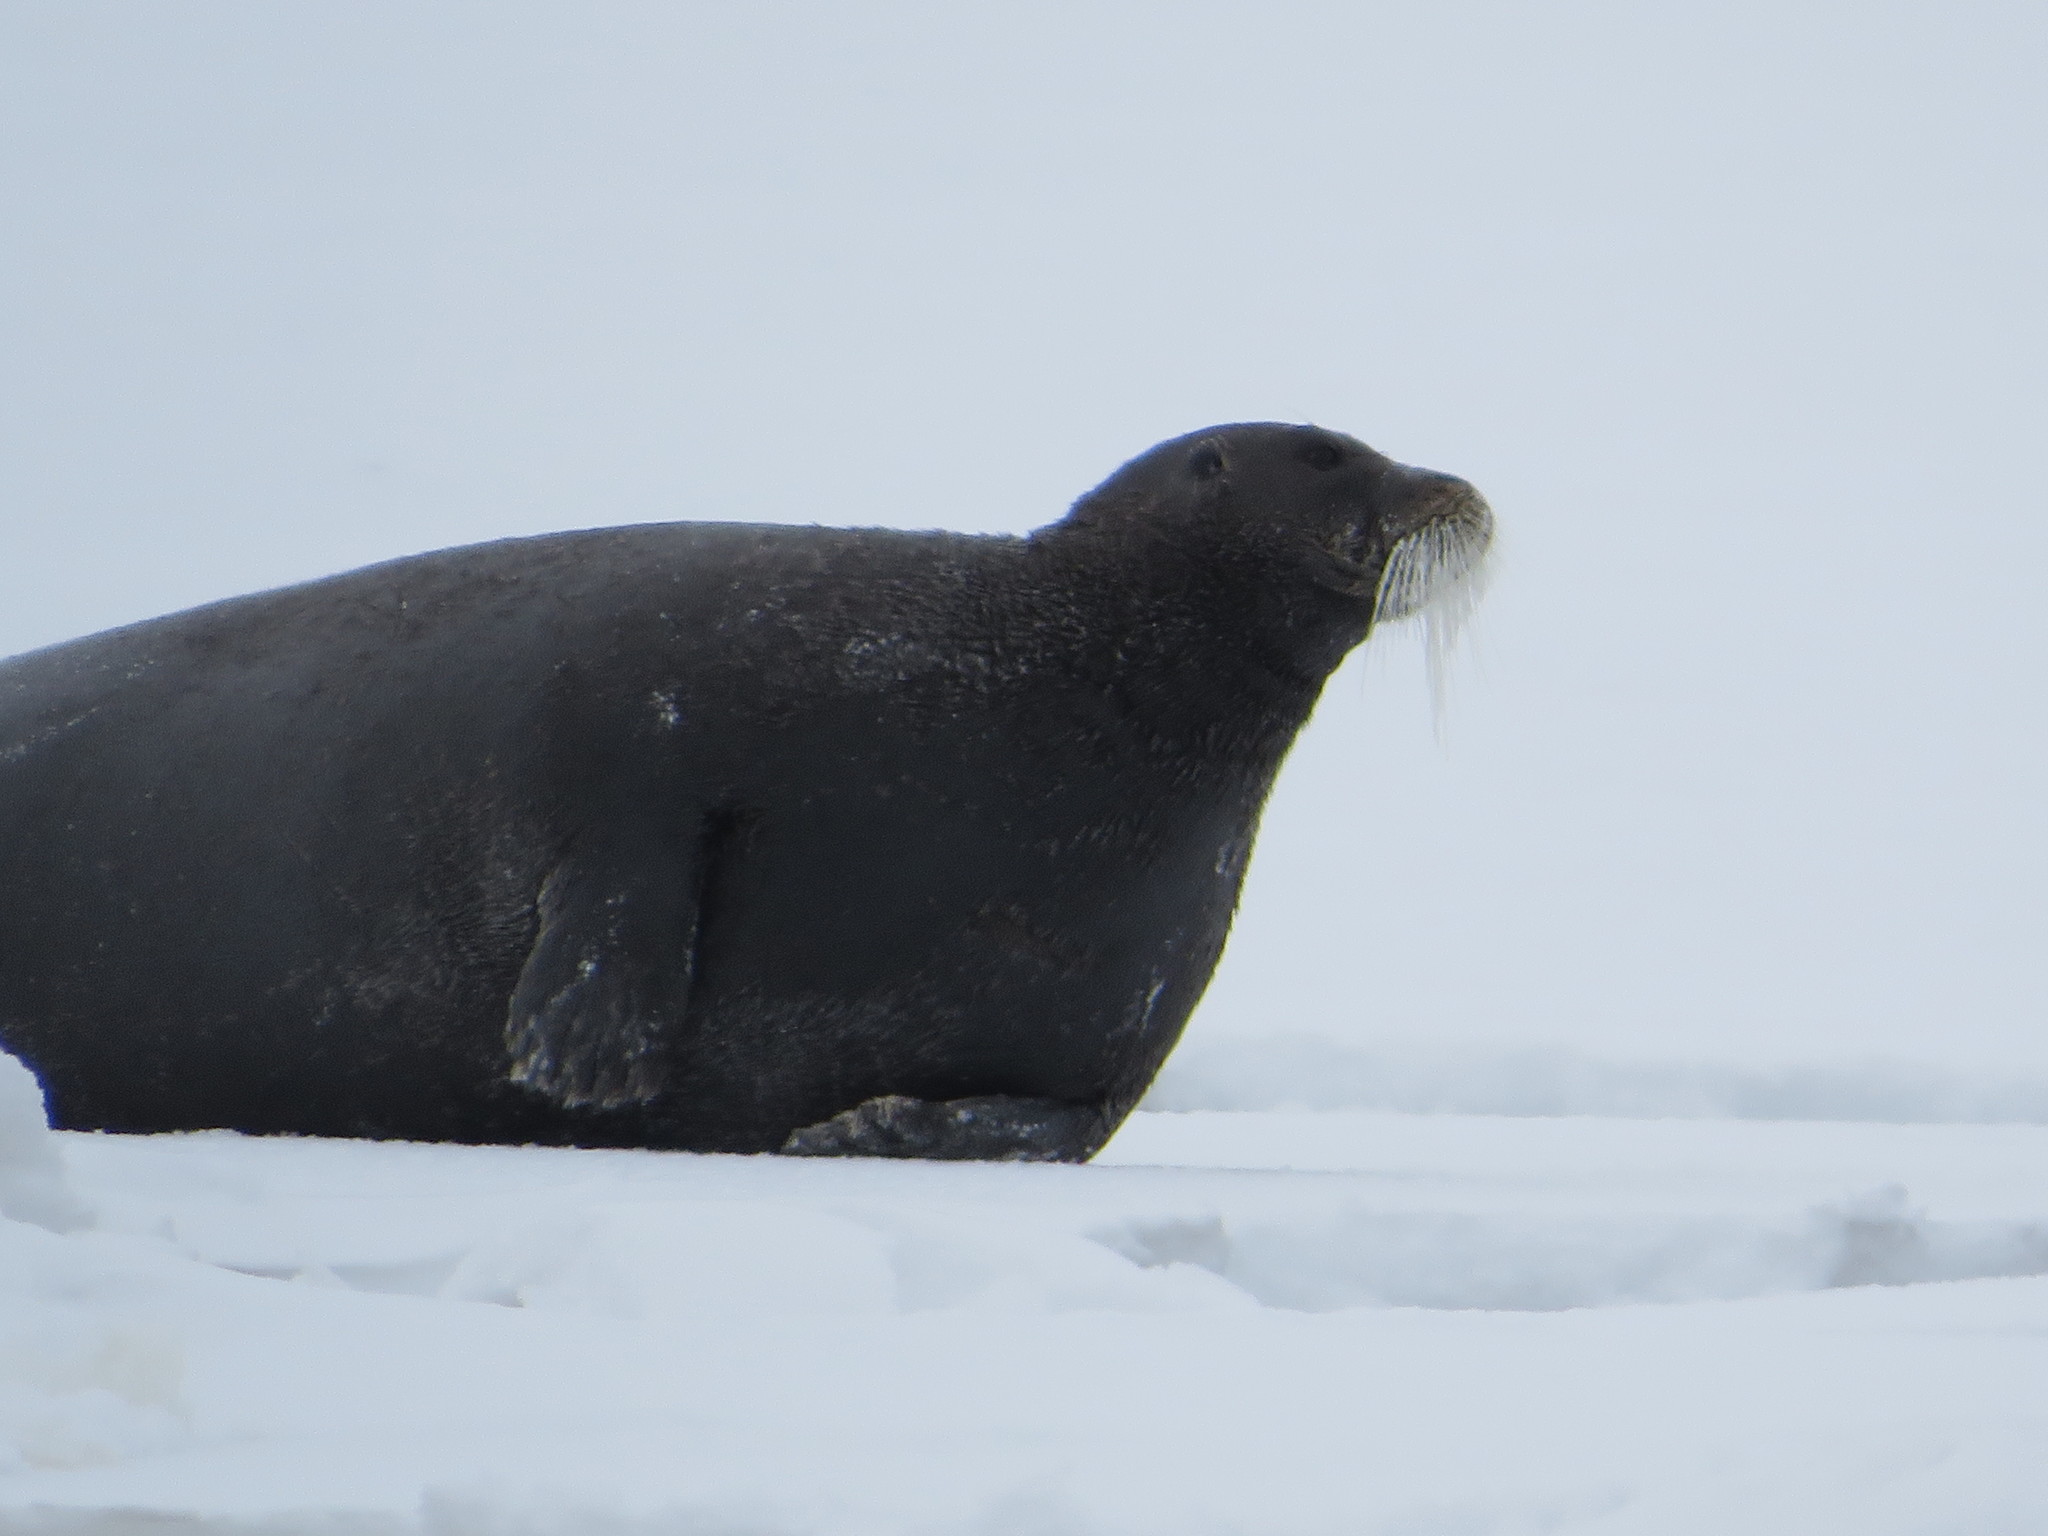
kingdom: Animalia
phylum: Chordata
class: Mammalia
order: Carnivora
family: Phocidae
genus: Erignathus
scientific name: Erignathus barbatus
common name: Bearded seal
